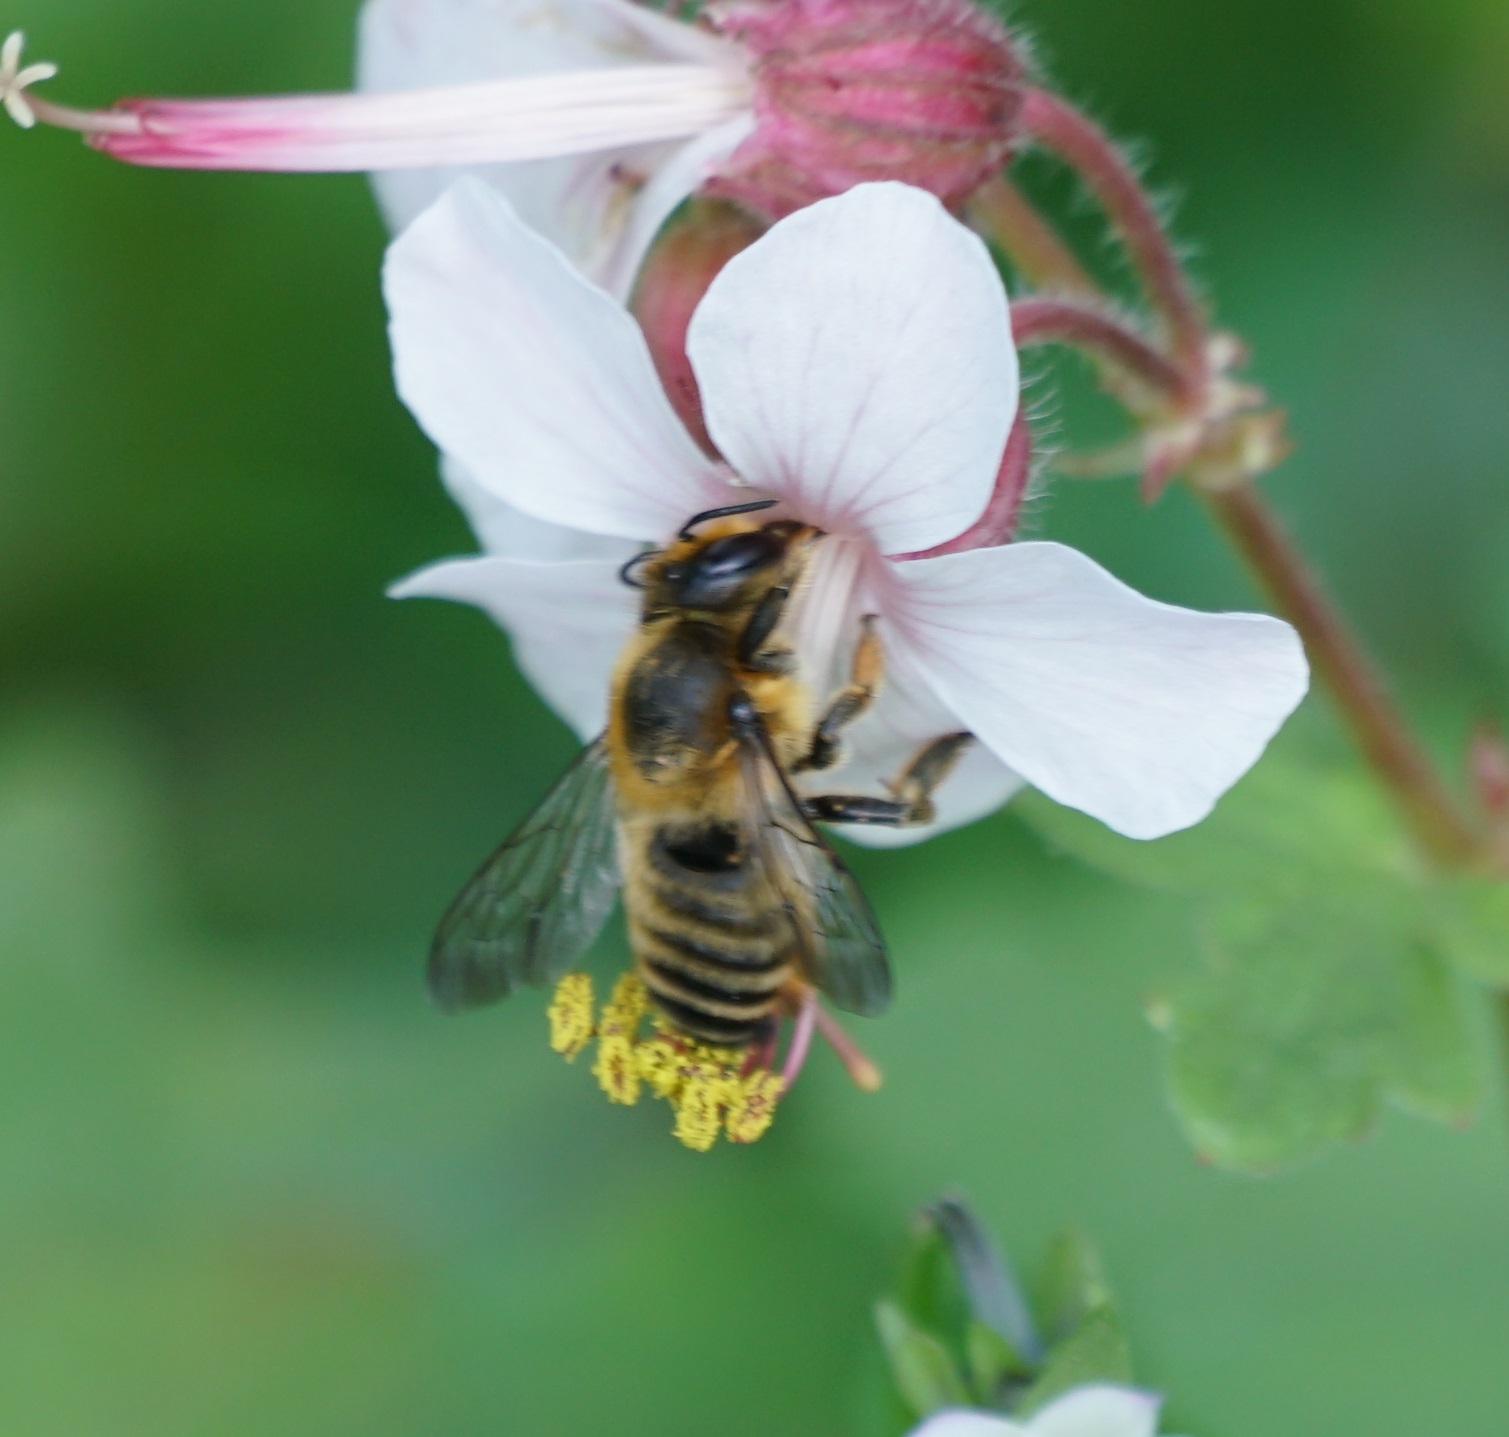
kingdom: Animalia
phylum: Arthropoda
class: Insecta
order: Hymenoptera
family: Megachilidae
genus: Megachile
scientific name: Megachile ericetorum
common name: Leafcutter bee
